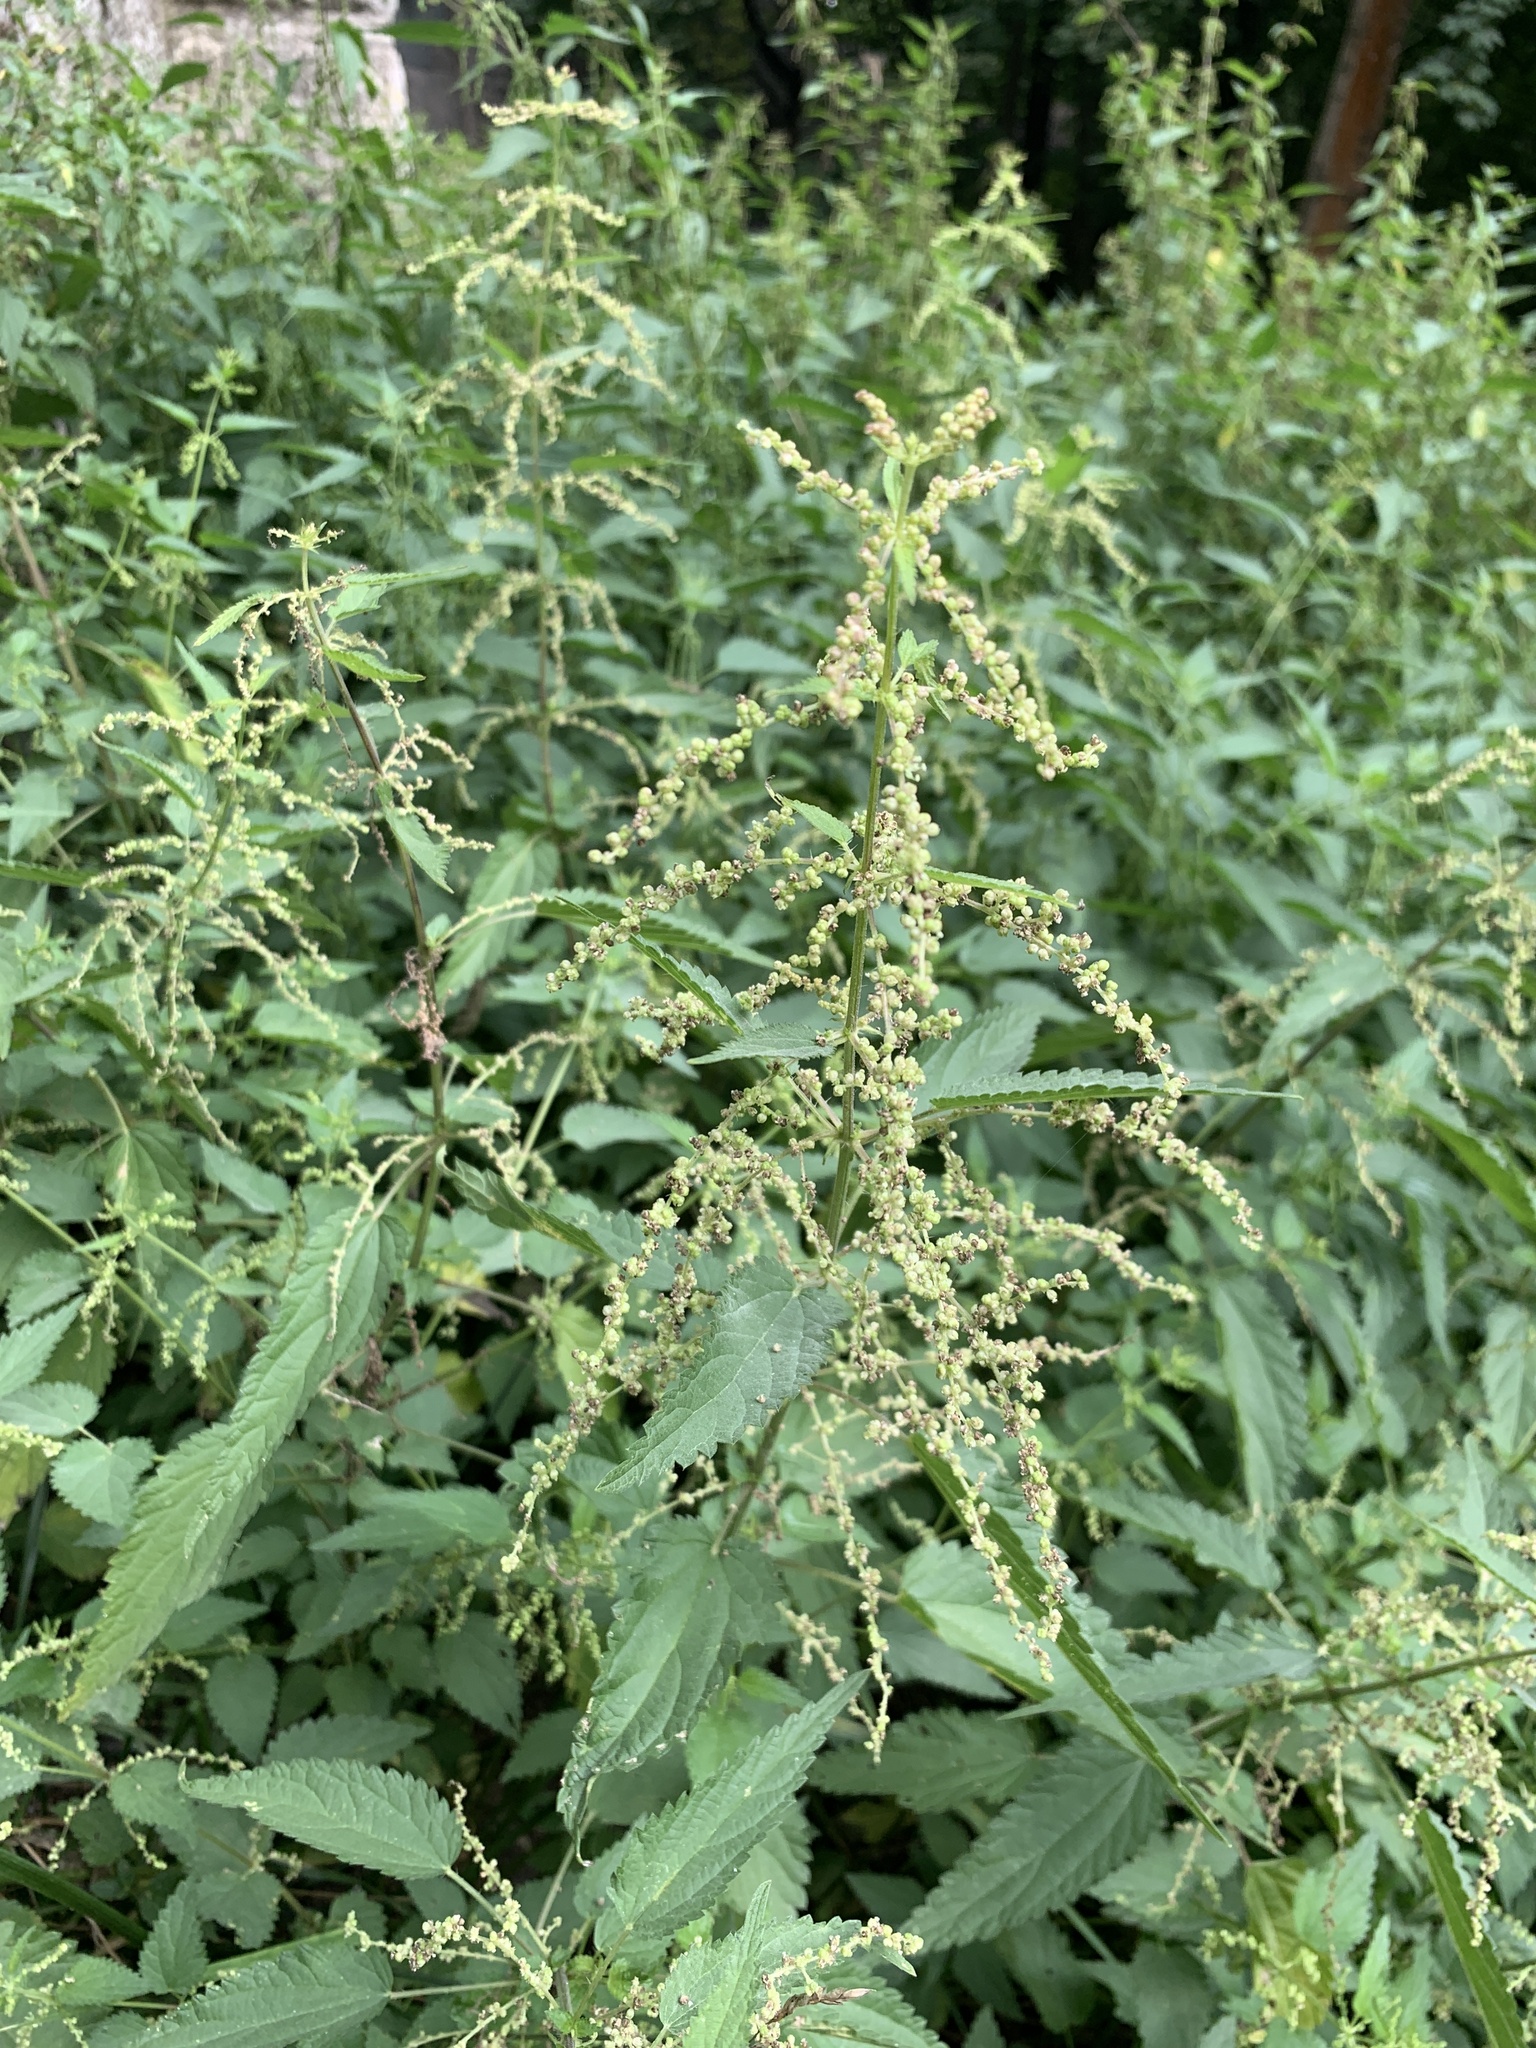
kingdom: Plantae
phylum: Tracheophyta
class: Magnoliopsida
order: Rosales
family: Urticaceae
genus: Urtica
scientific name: Urtica dioica
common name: Common nettle
